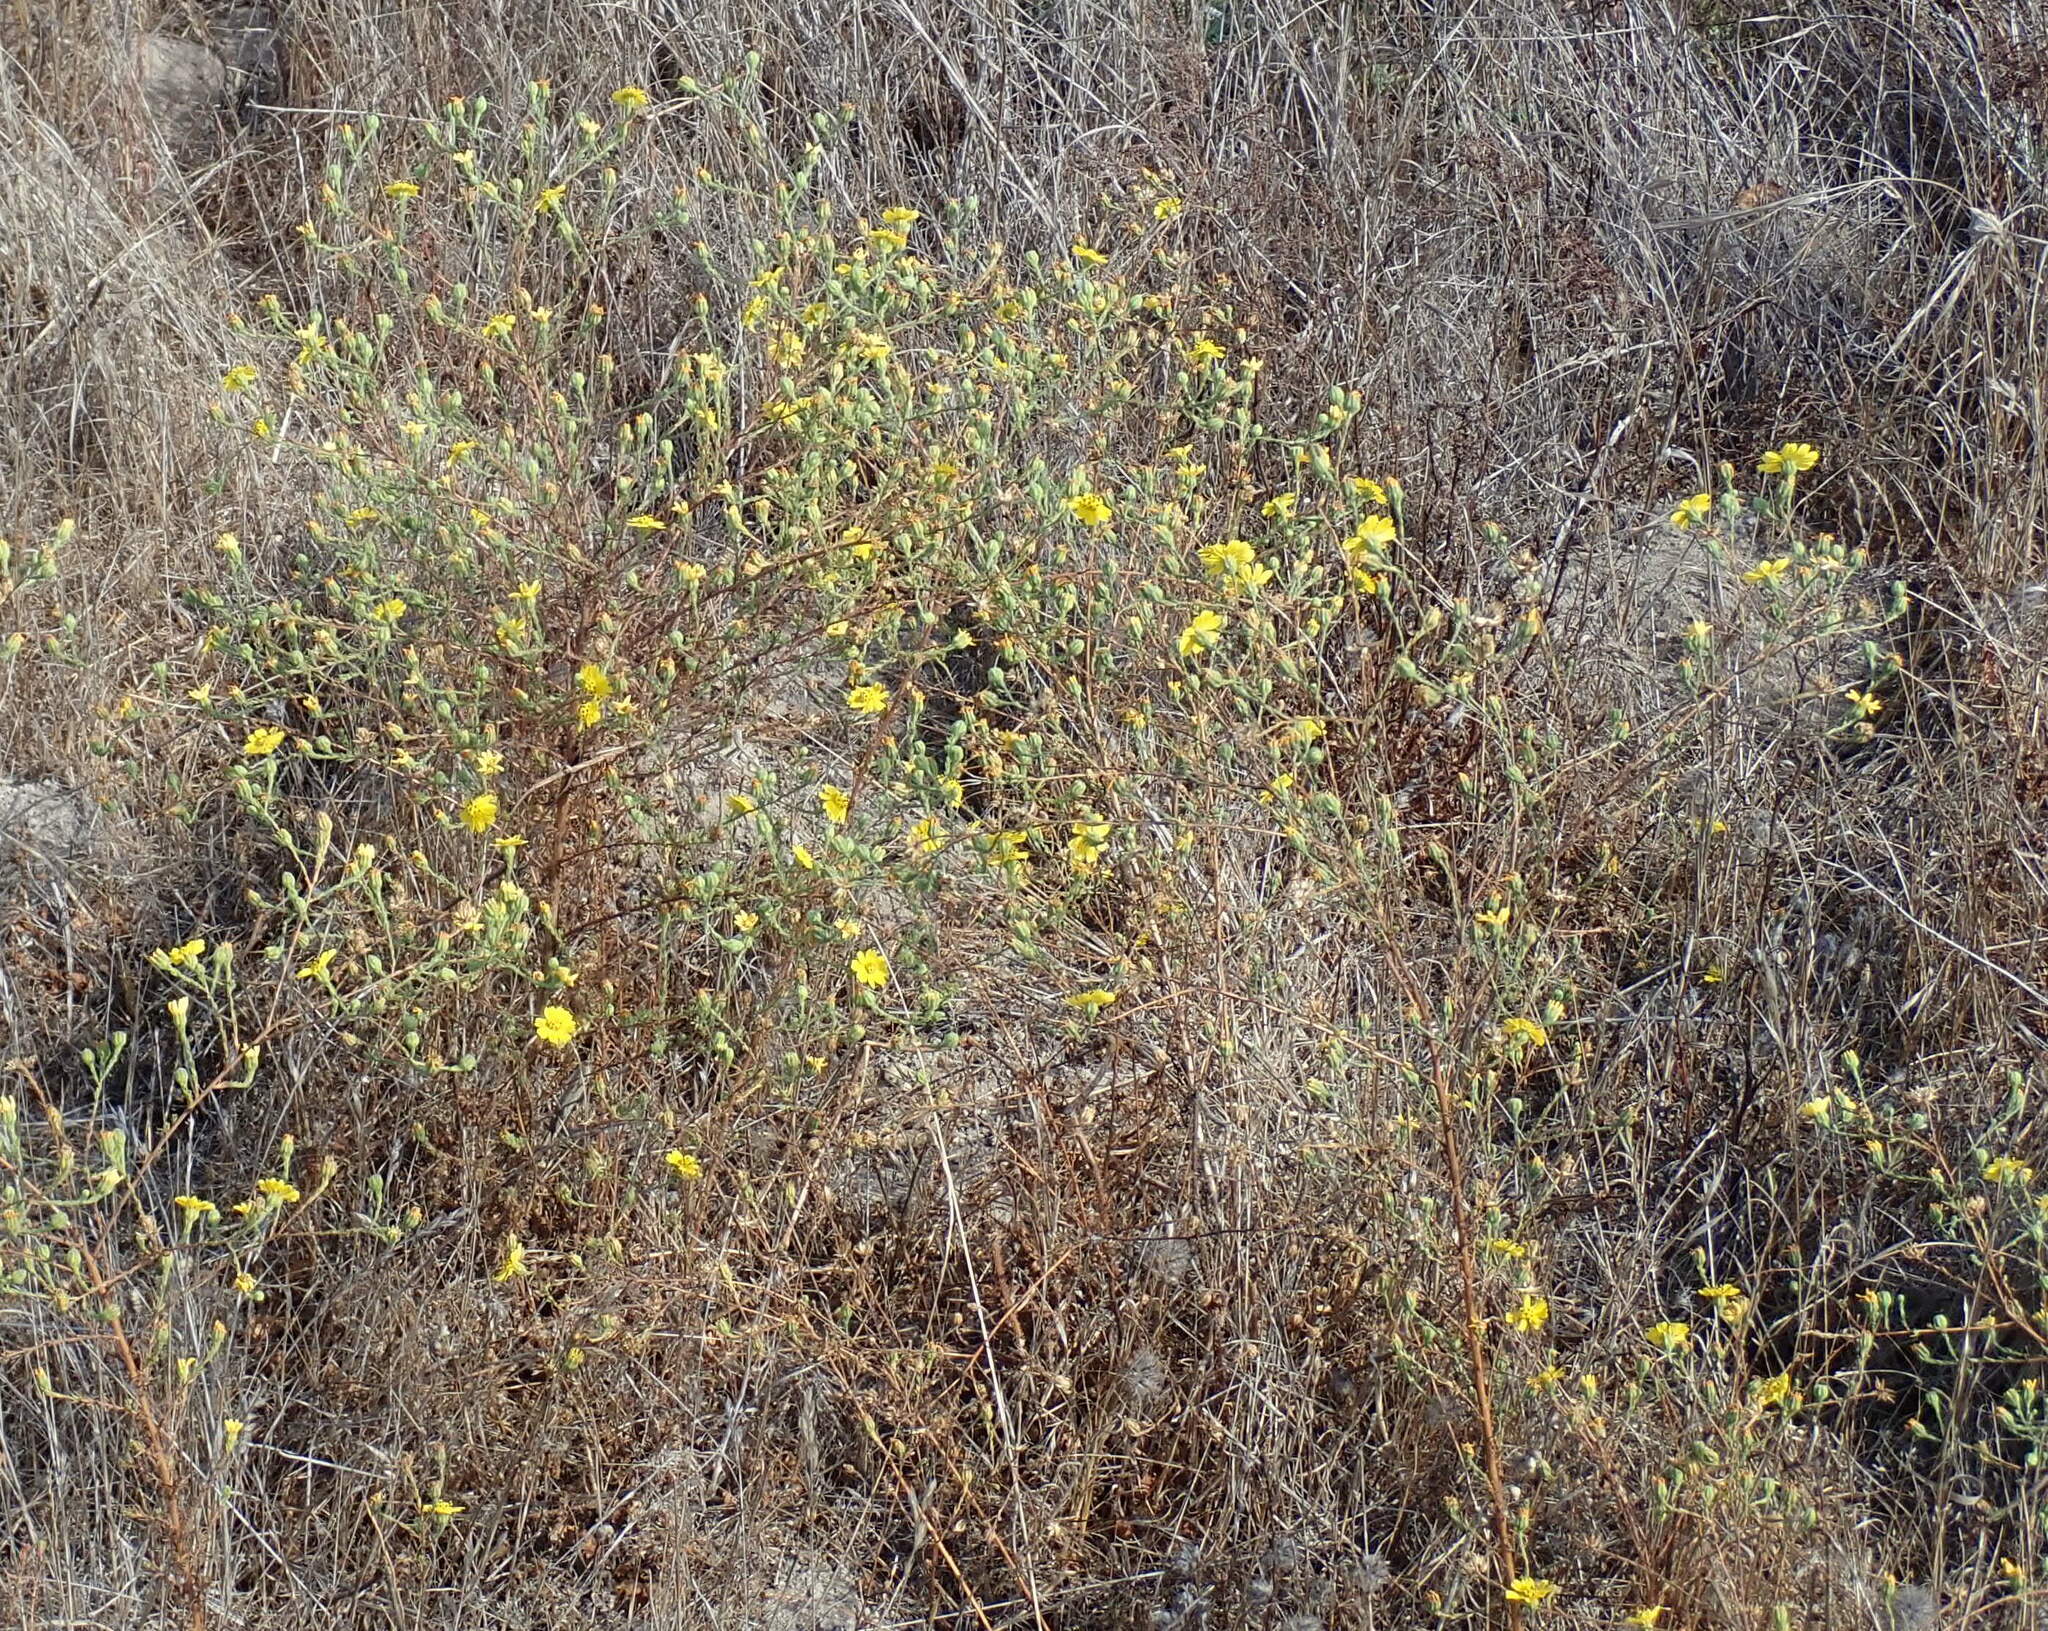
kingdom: Plantae
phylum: Tracheophyta
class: Magnoliopsida
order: Asterales
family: Asteraceae
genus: Deinandra
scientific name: Deinandra paniculata
